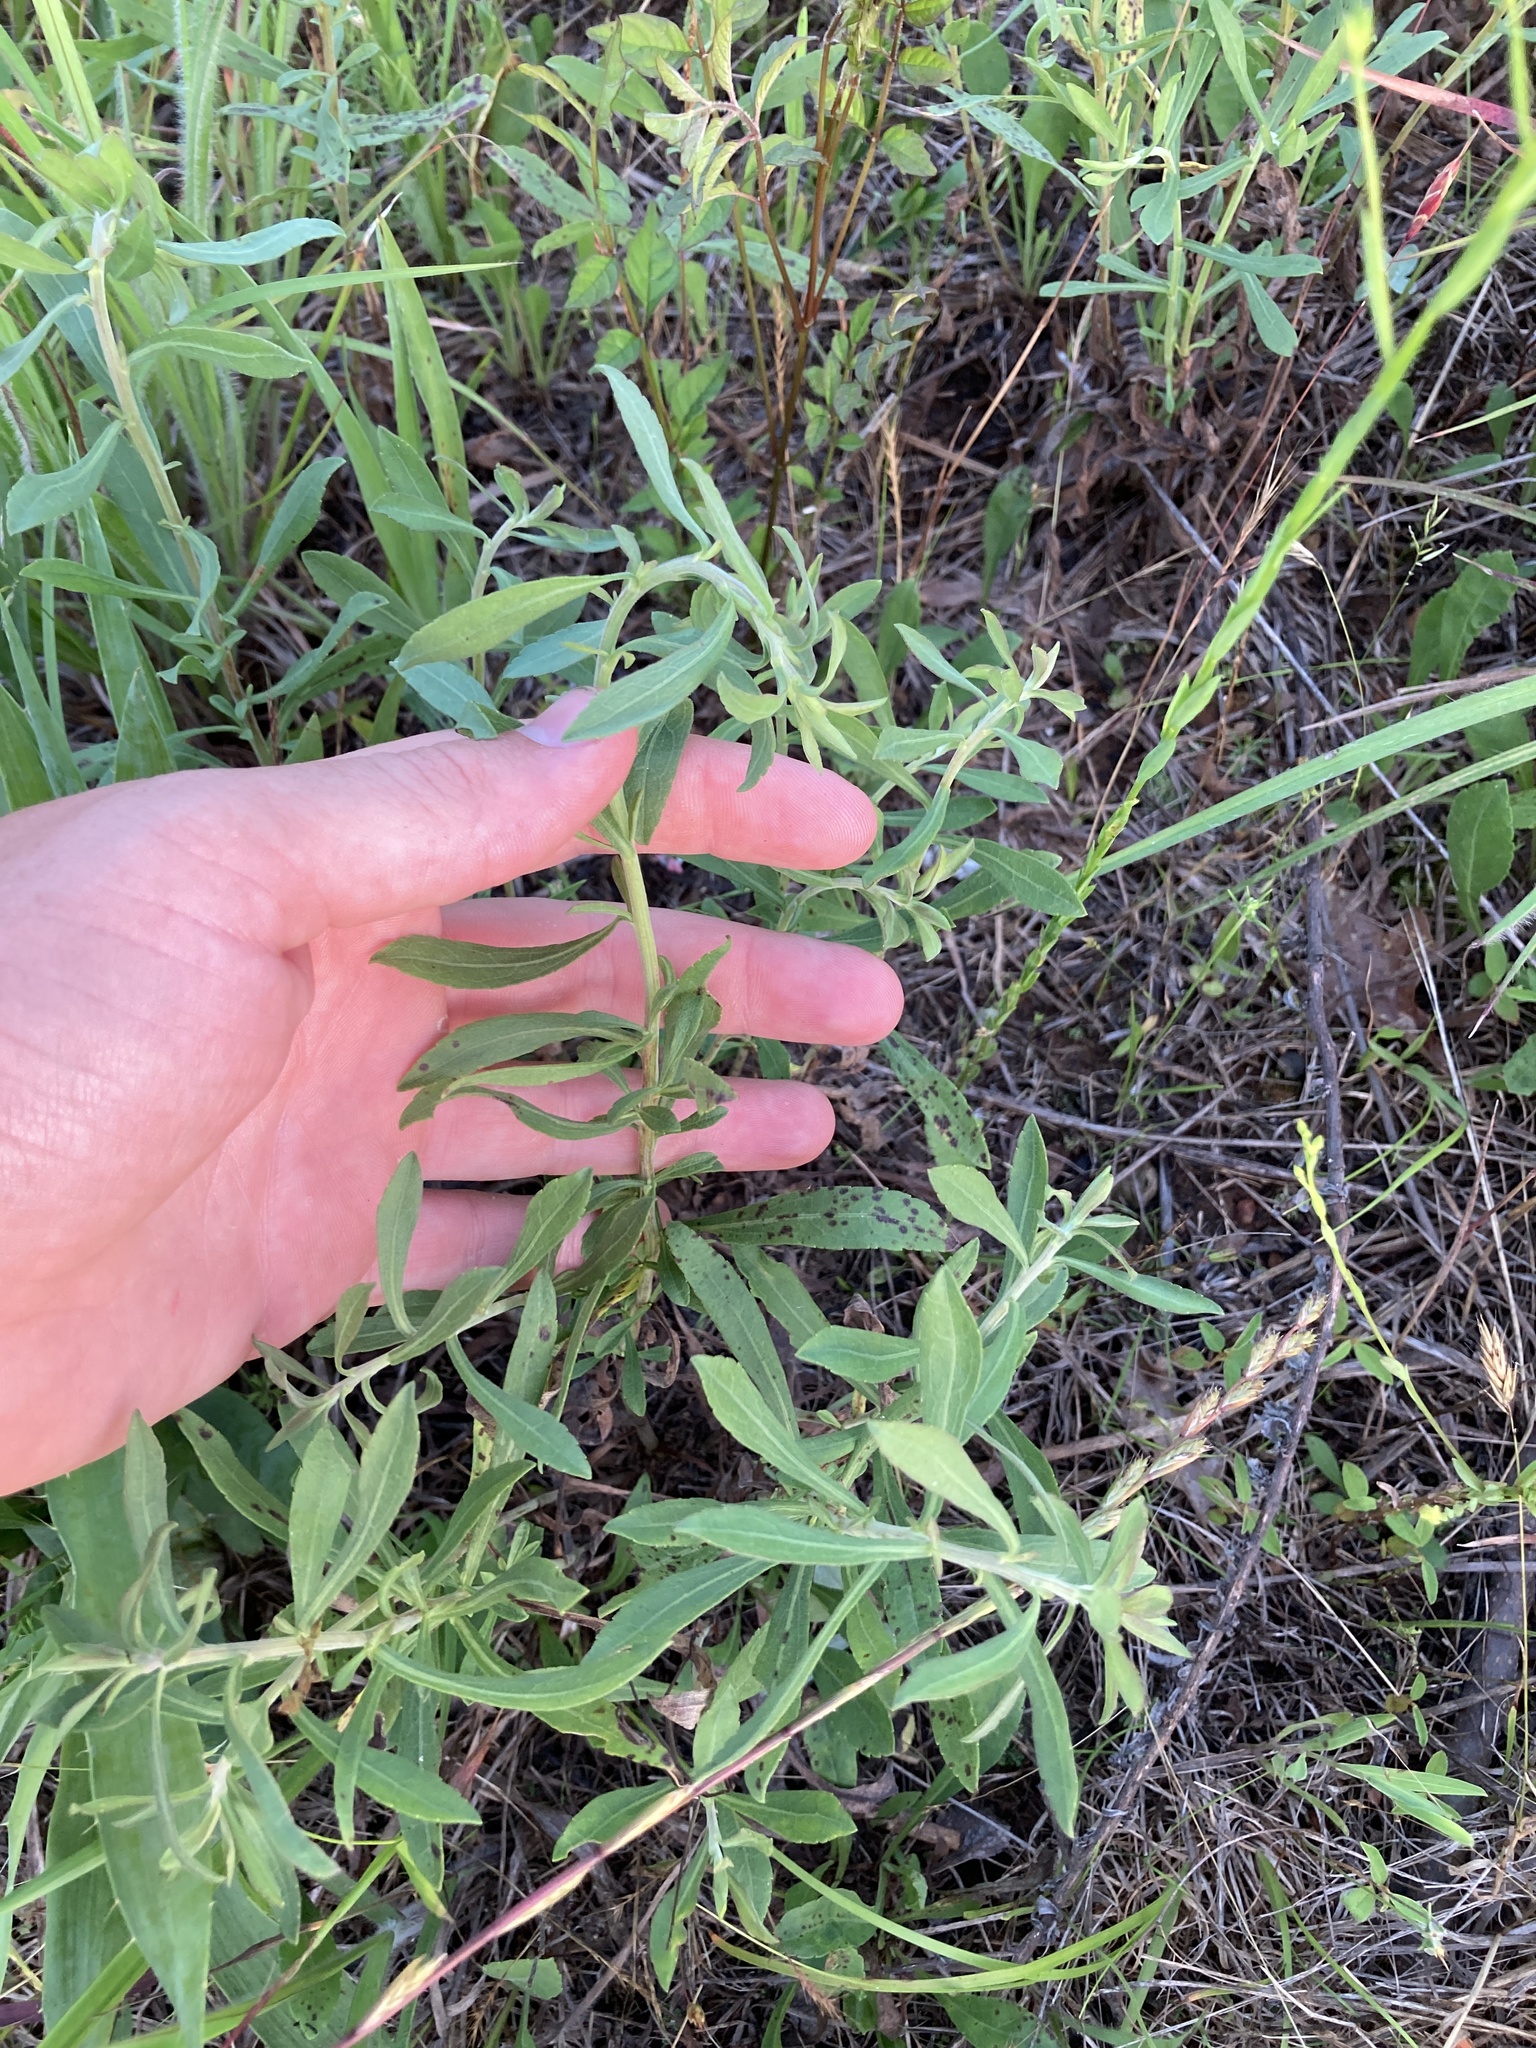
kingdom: Plantae
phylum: Tracheophyta
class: Magnoliopsida
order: Asterales
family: Asteraceae
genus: Solidago
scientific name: Solidago nemoralis
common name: Grey goldenrod
